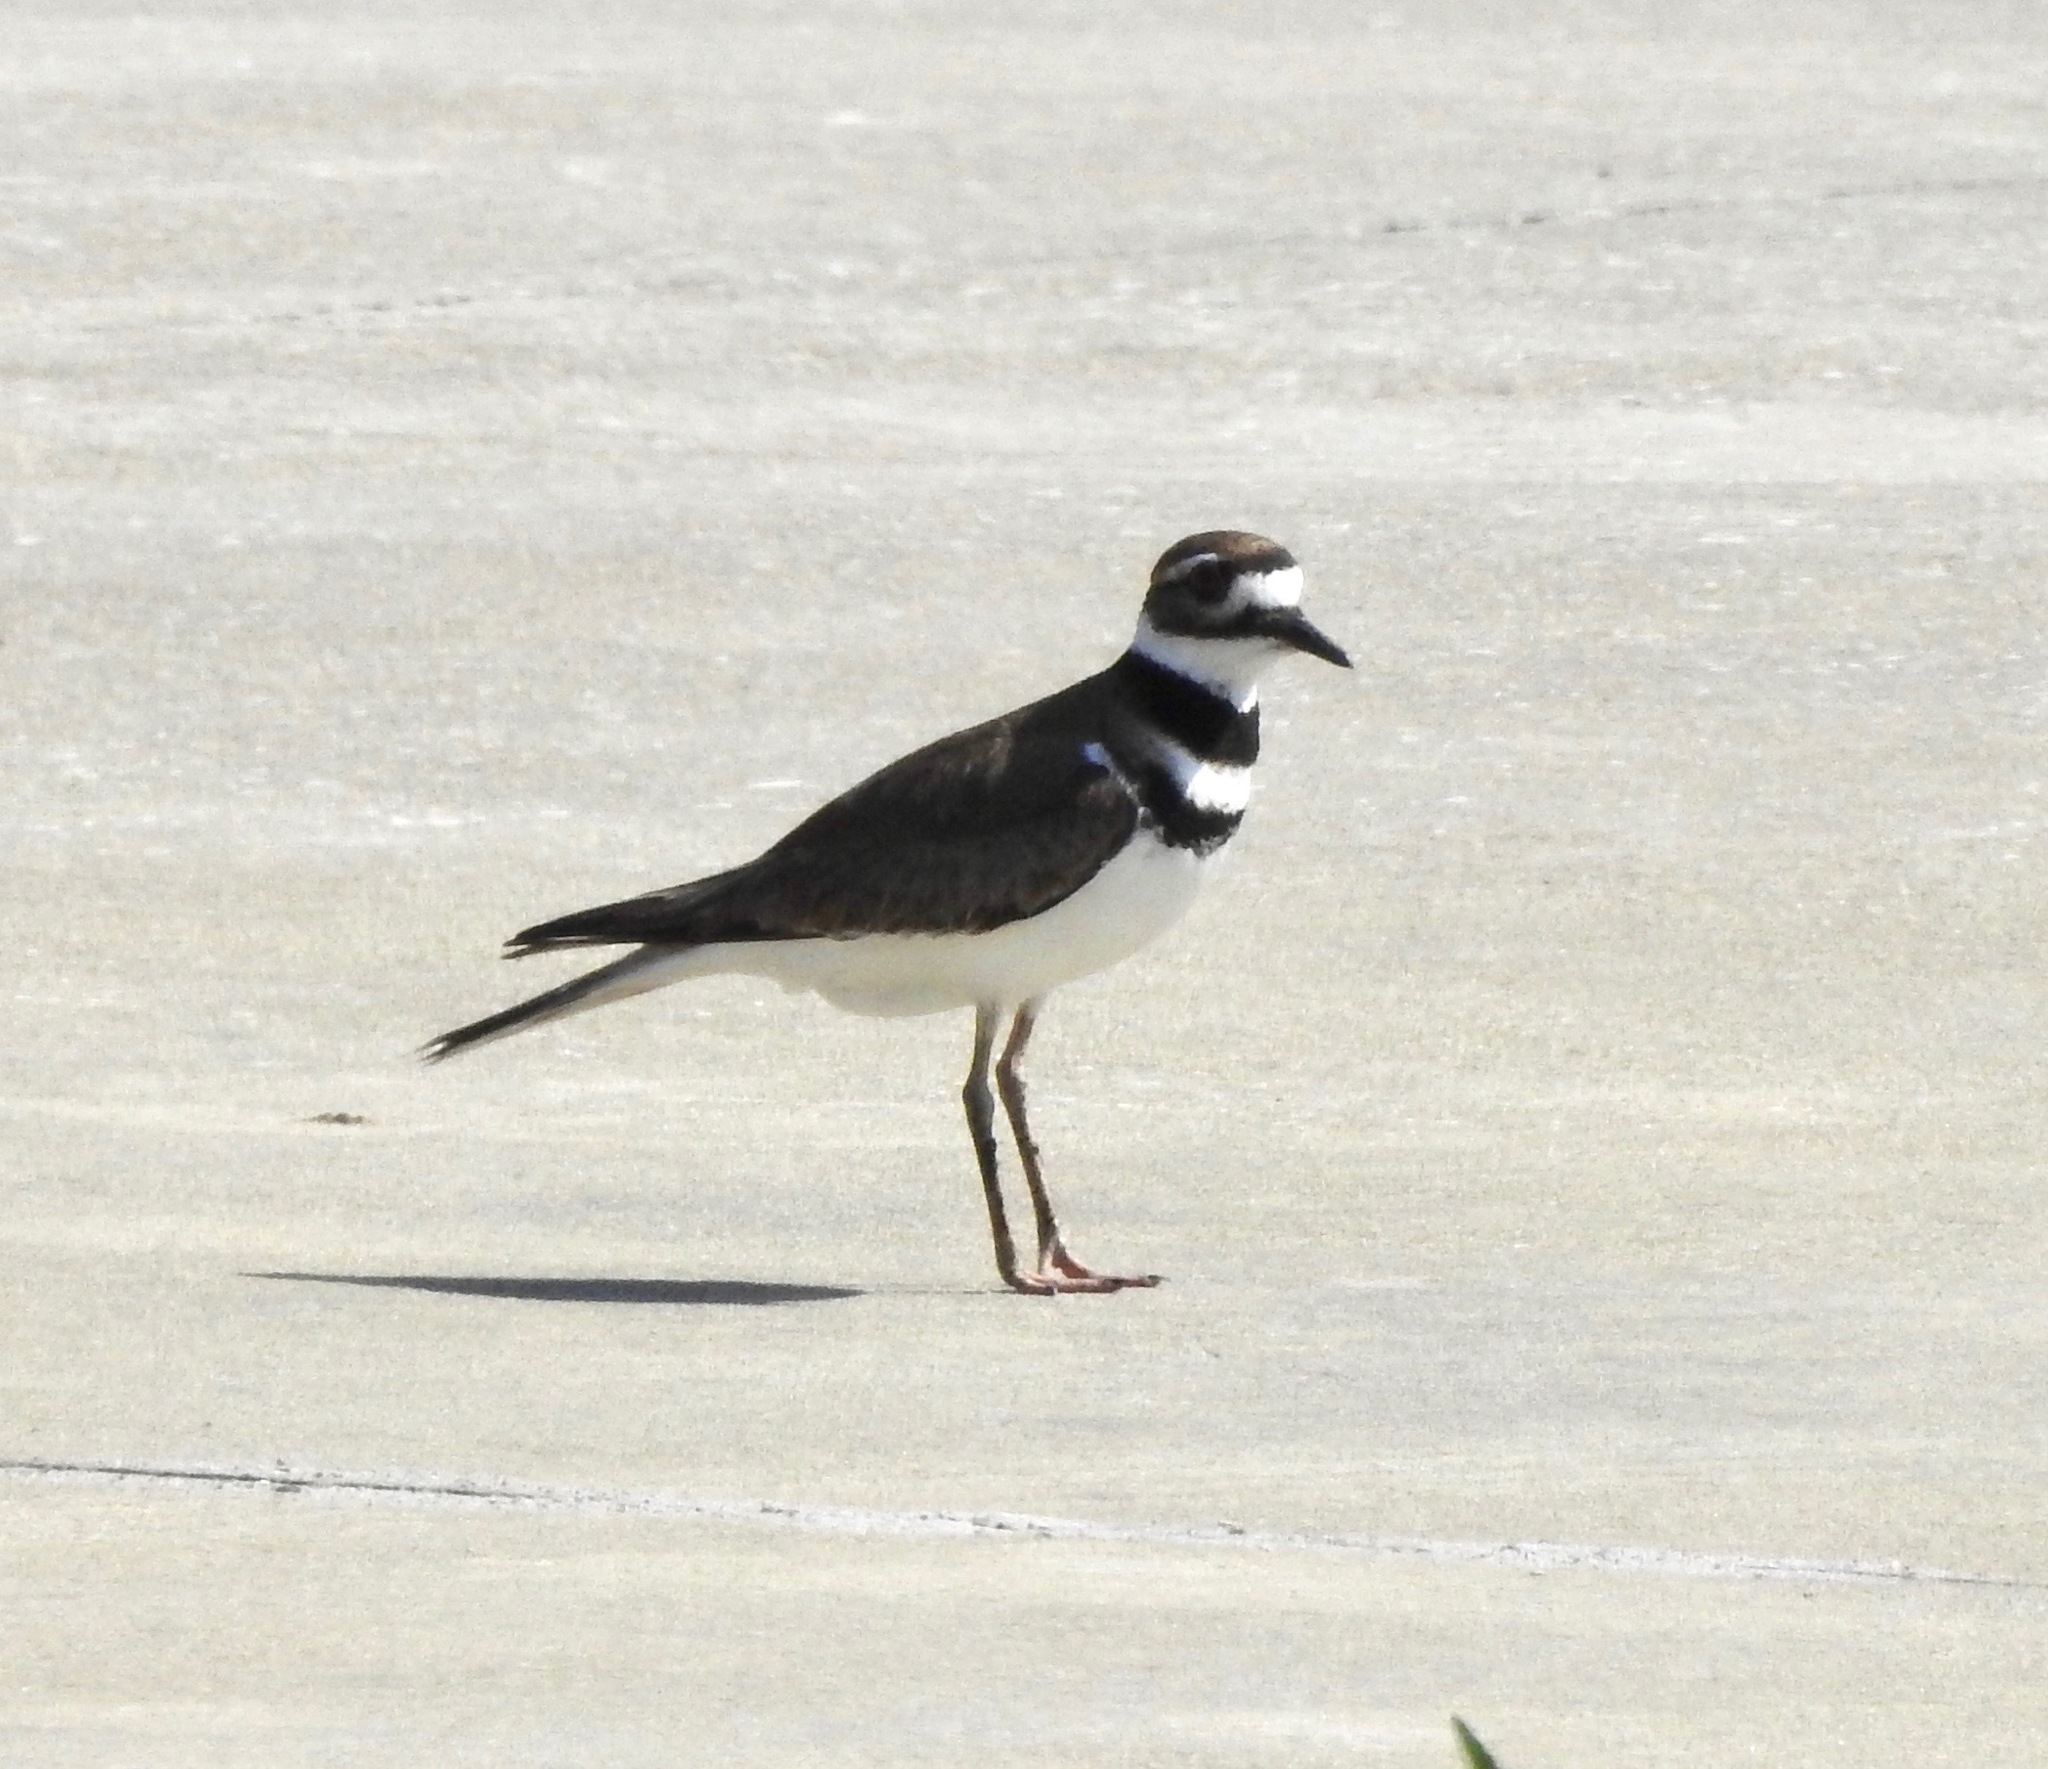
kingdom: Animalia
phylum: Chordata
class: Aves
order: Charadriiformes
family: Charadriidae
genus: Charadrius
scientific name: Charadrius vociferus
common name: Killdeer
